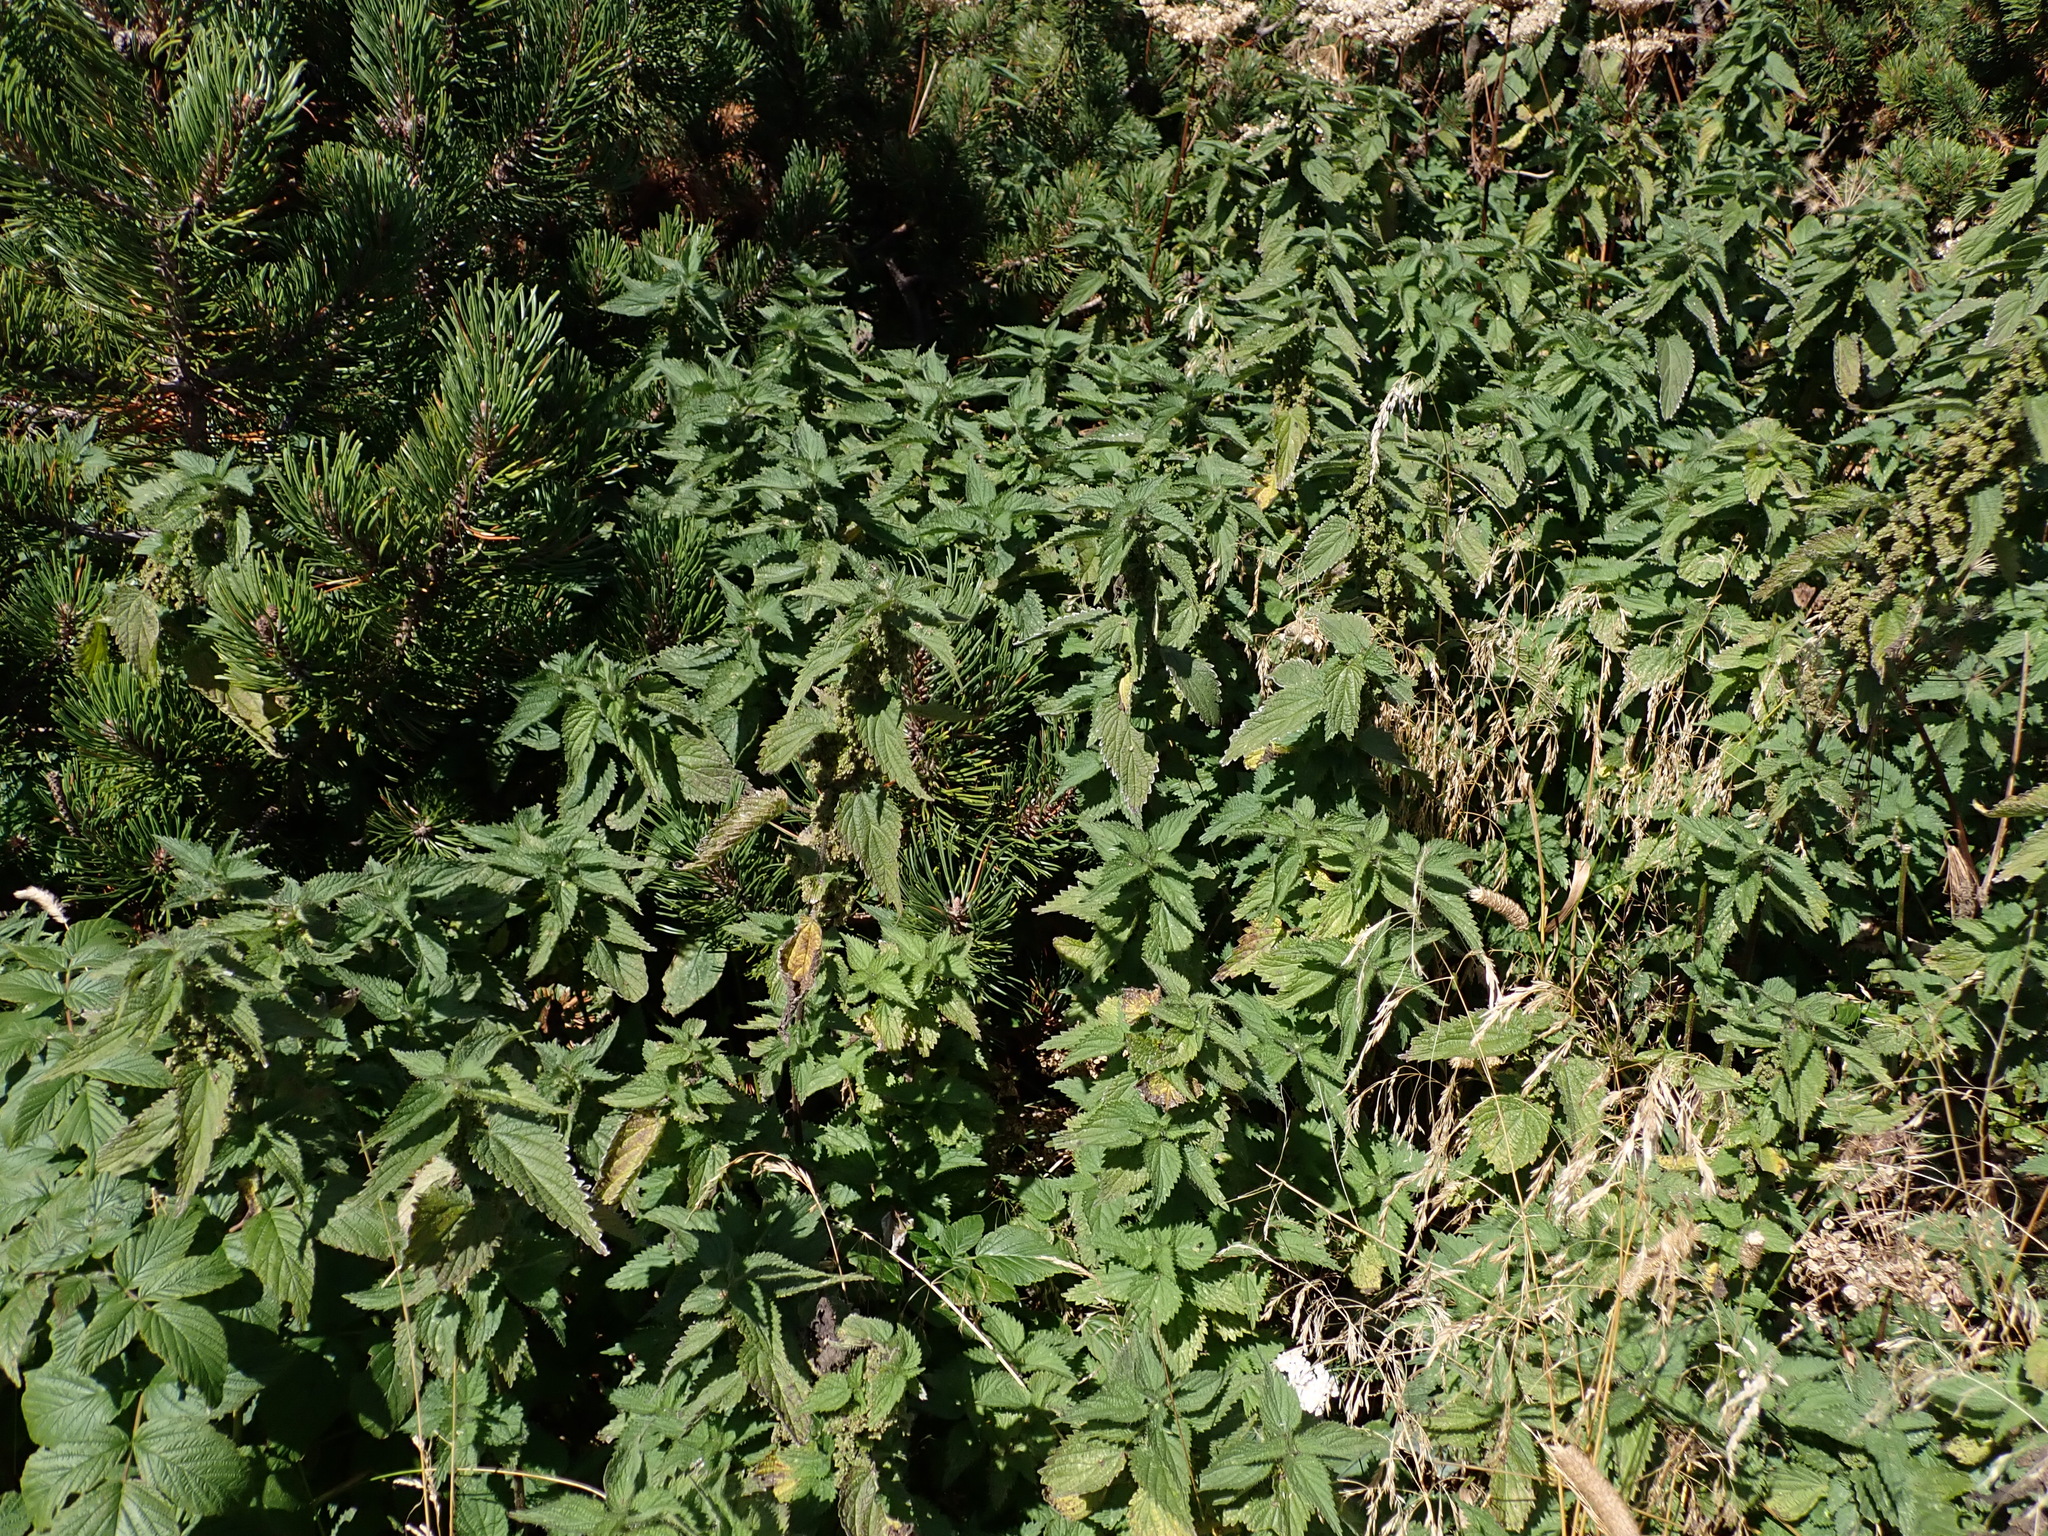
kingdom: Plantae
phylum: Tracheophyta
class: Magnoliopsida
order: Rosales
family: Urticaceae
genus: Urtica
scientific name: Urtica dioica
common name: Common nettle
